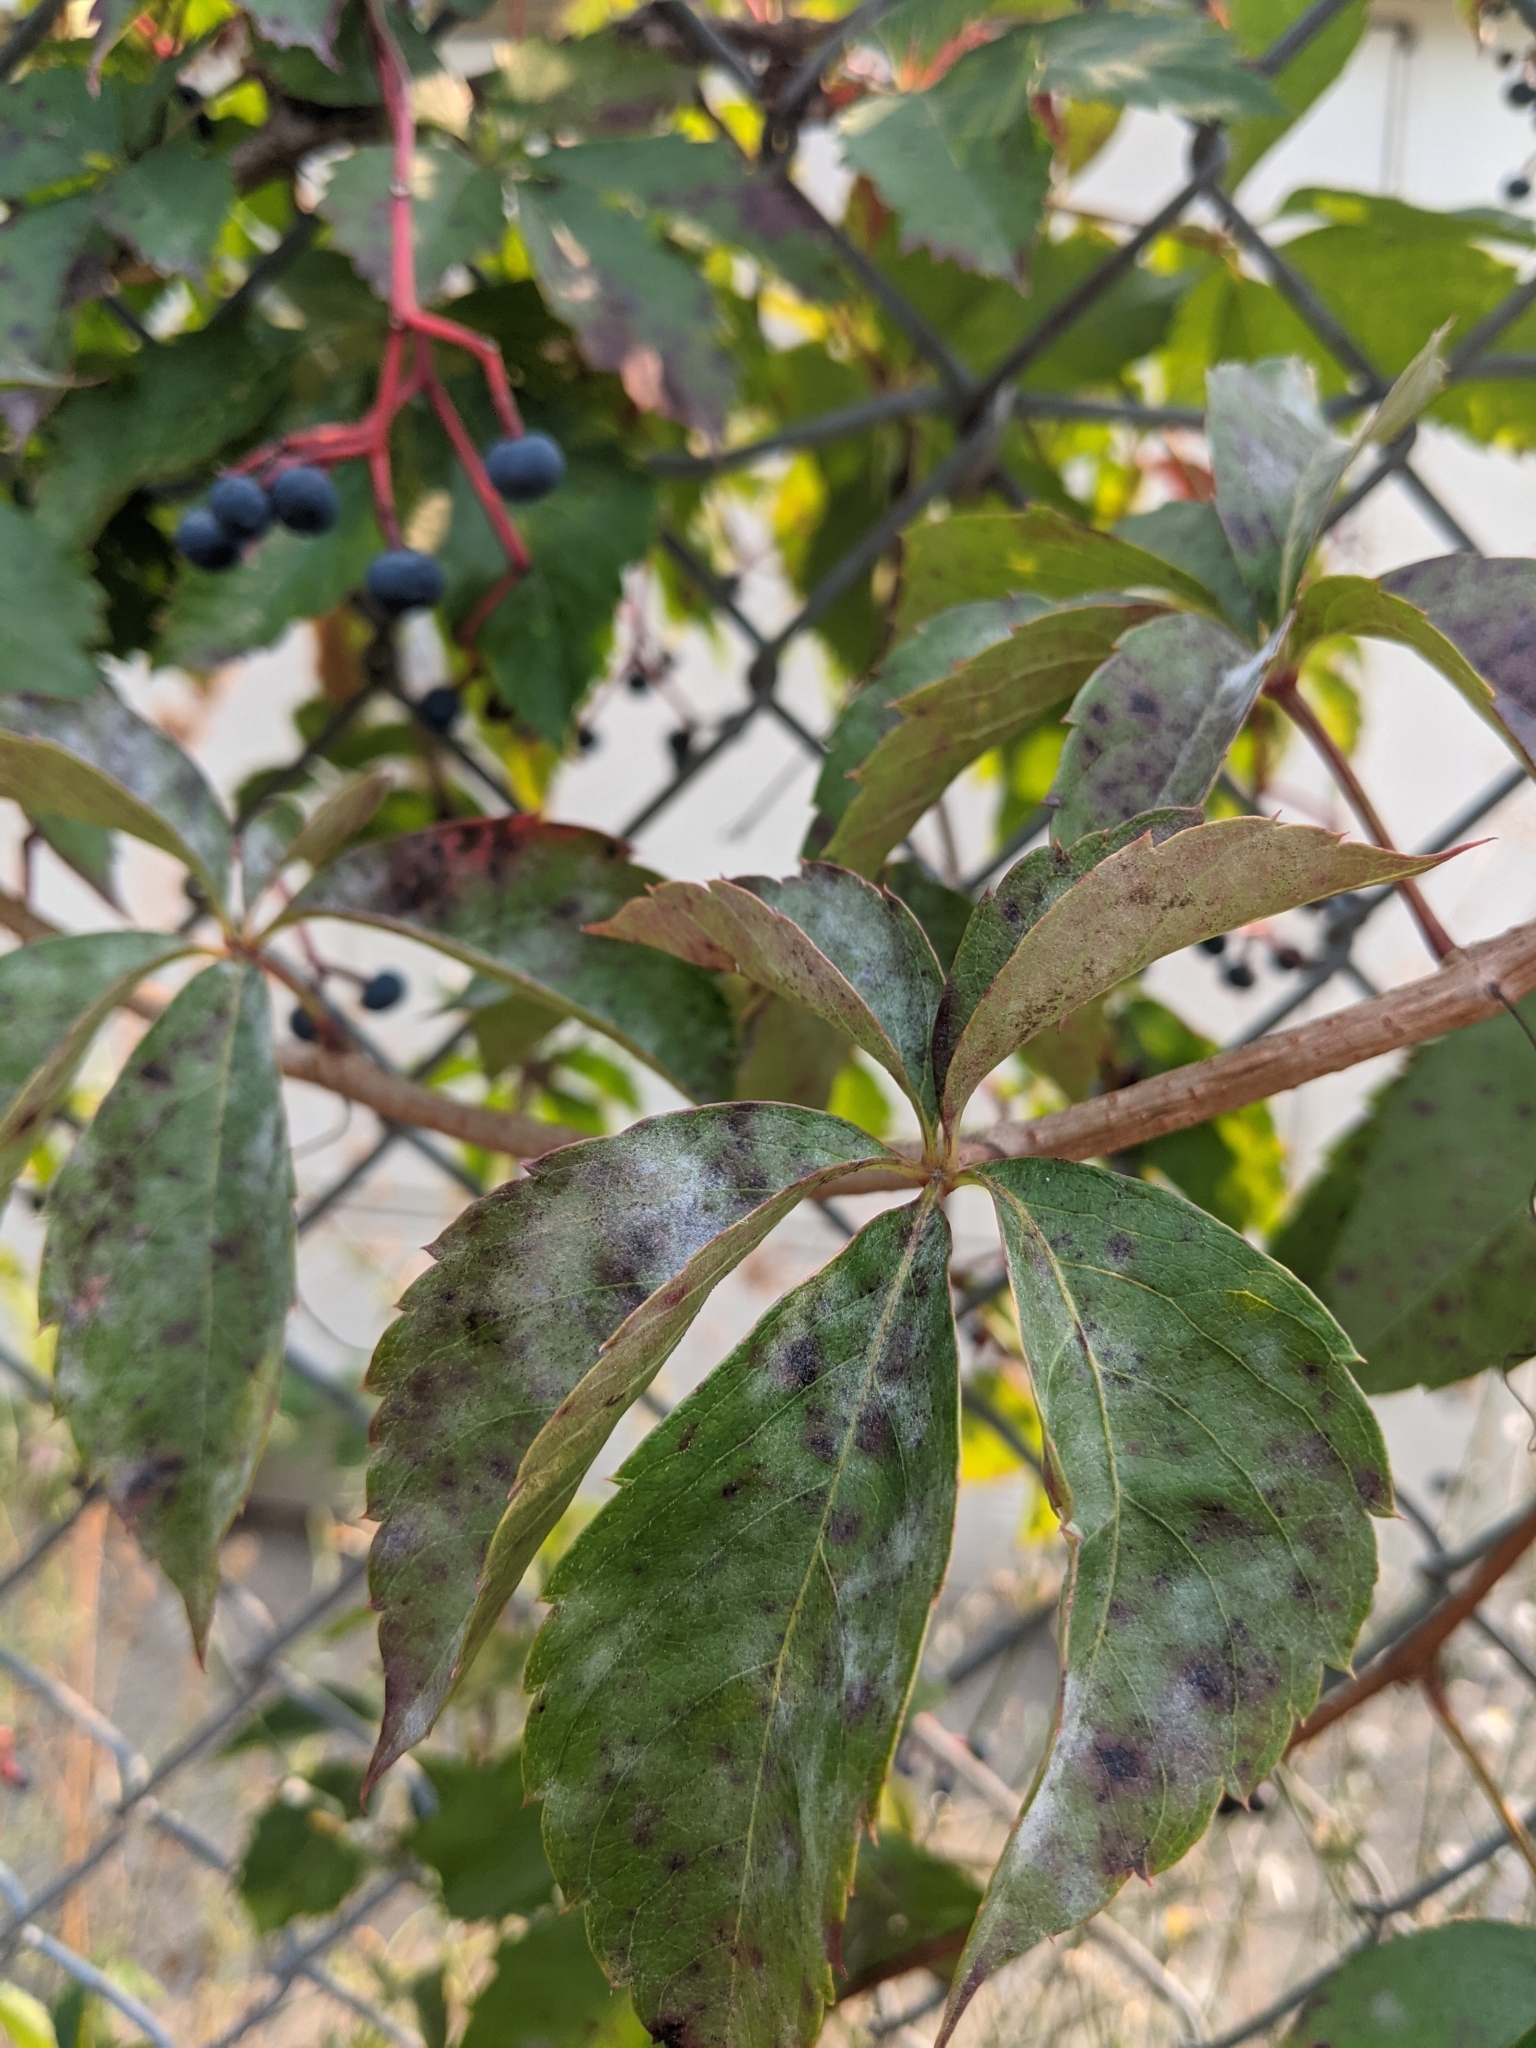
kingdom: Plantae
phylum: Tracheophyta
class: Magnoliopsida
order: Vitales
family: Vitaceae
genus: Parthenocissus
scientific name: Parthenocissus quinquefolia
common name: Virginia-creeper
